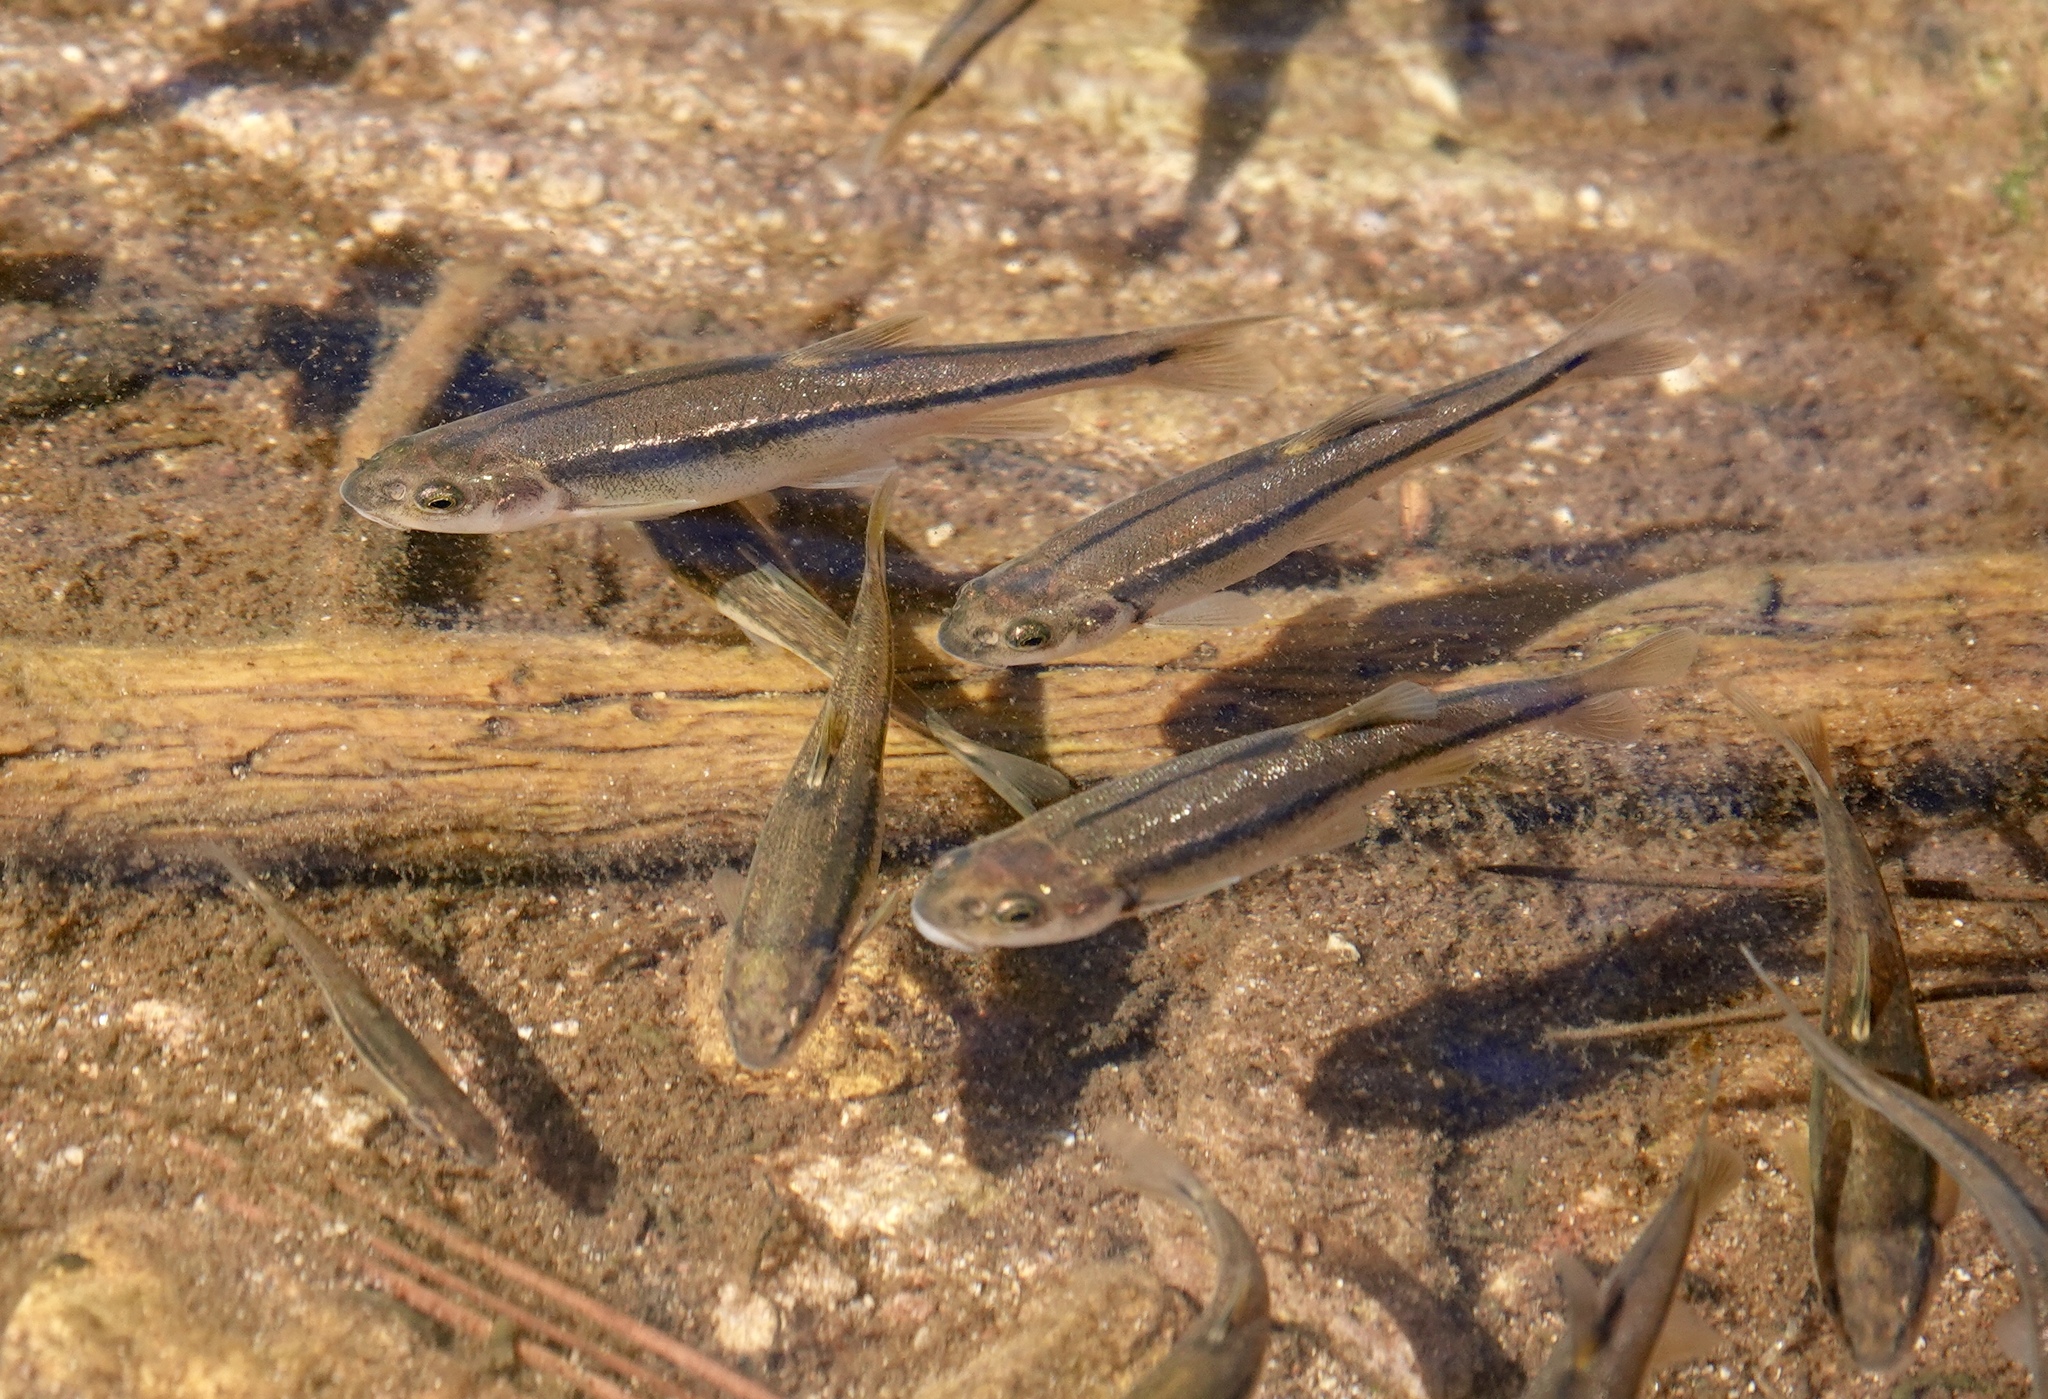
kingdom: Animalia
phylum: Chordata
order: Cypriniformes
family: Cyprinidae
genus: Agosia
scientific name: Agosia chrysogaster
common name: Longfin dace
